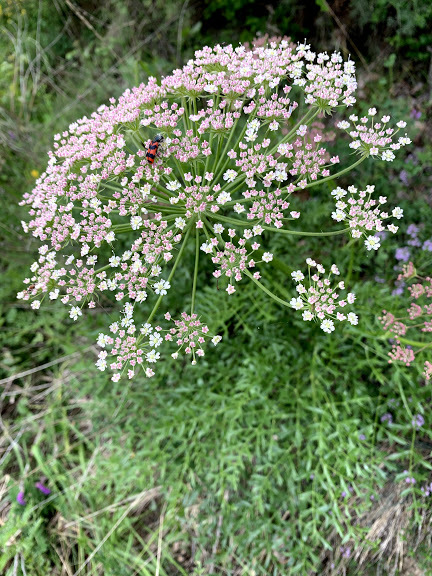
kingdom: Plantae
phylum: Tracheophyta
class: Magnoliopsida
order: Apiales
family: Apiaceae
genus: Laserpitium
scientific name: Laserpitium gallicum
